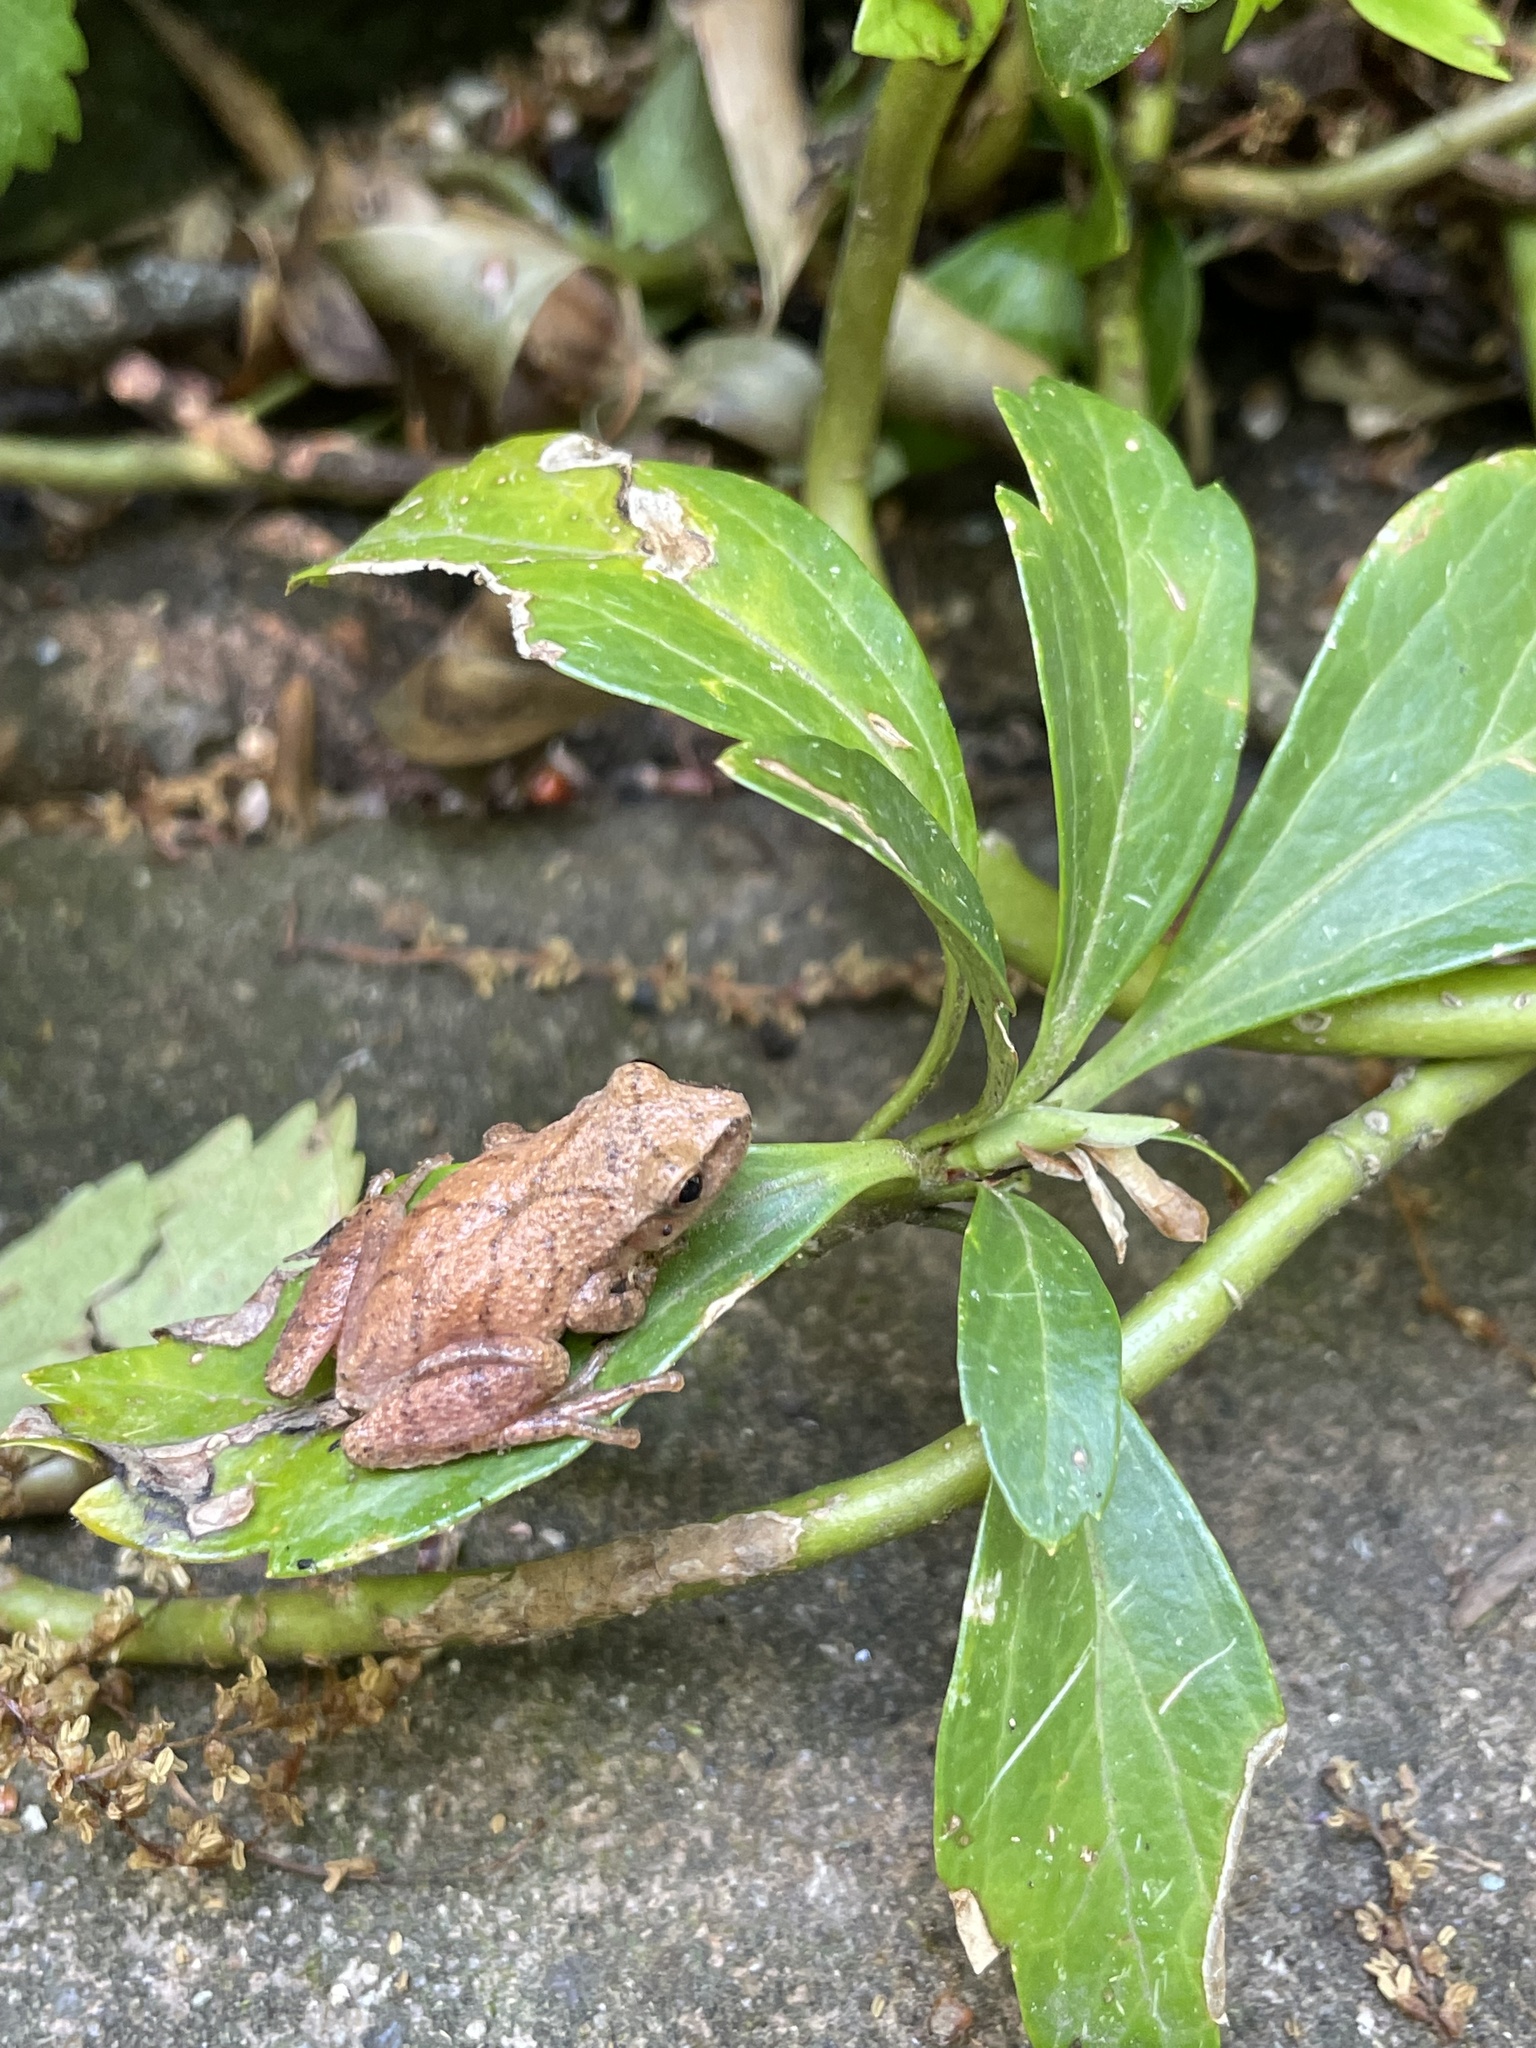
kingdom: Animalia
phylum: Chordata
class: Amphibia
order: Anura
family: Hylidae
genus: Pseudacris
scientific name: Pseudacris crucifer
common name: Spring peeper
